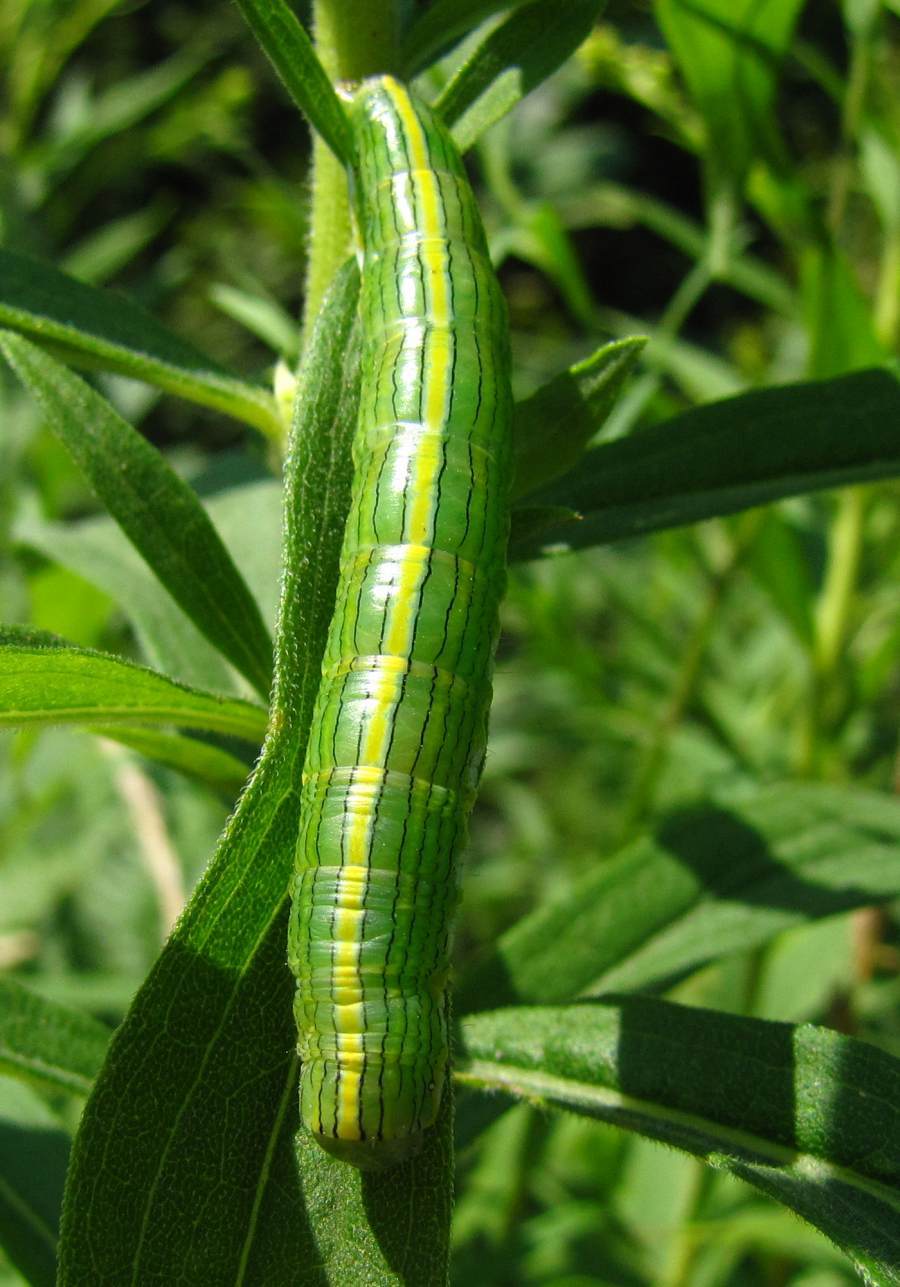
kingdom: Animalia
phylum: Arthropoda
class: Insecta
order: Lepidoptera
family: Noctuidae
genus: Cucullia
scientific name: Cucullia asteroides
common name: Asteroid moth
